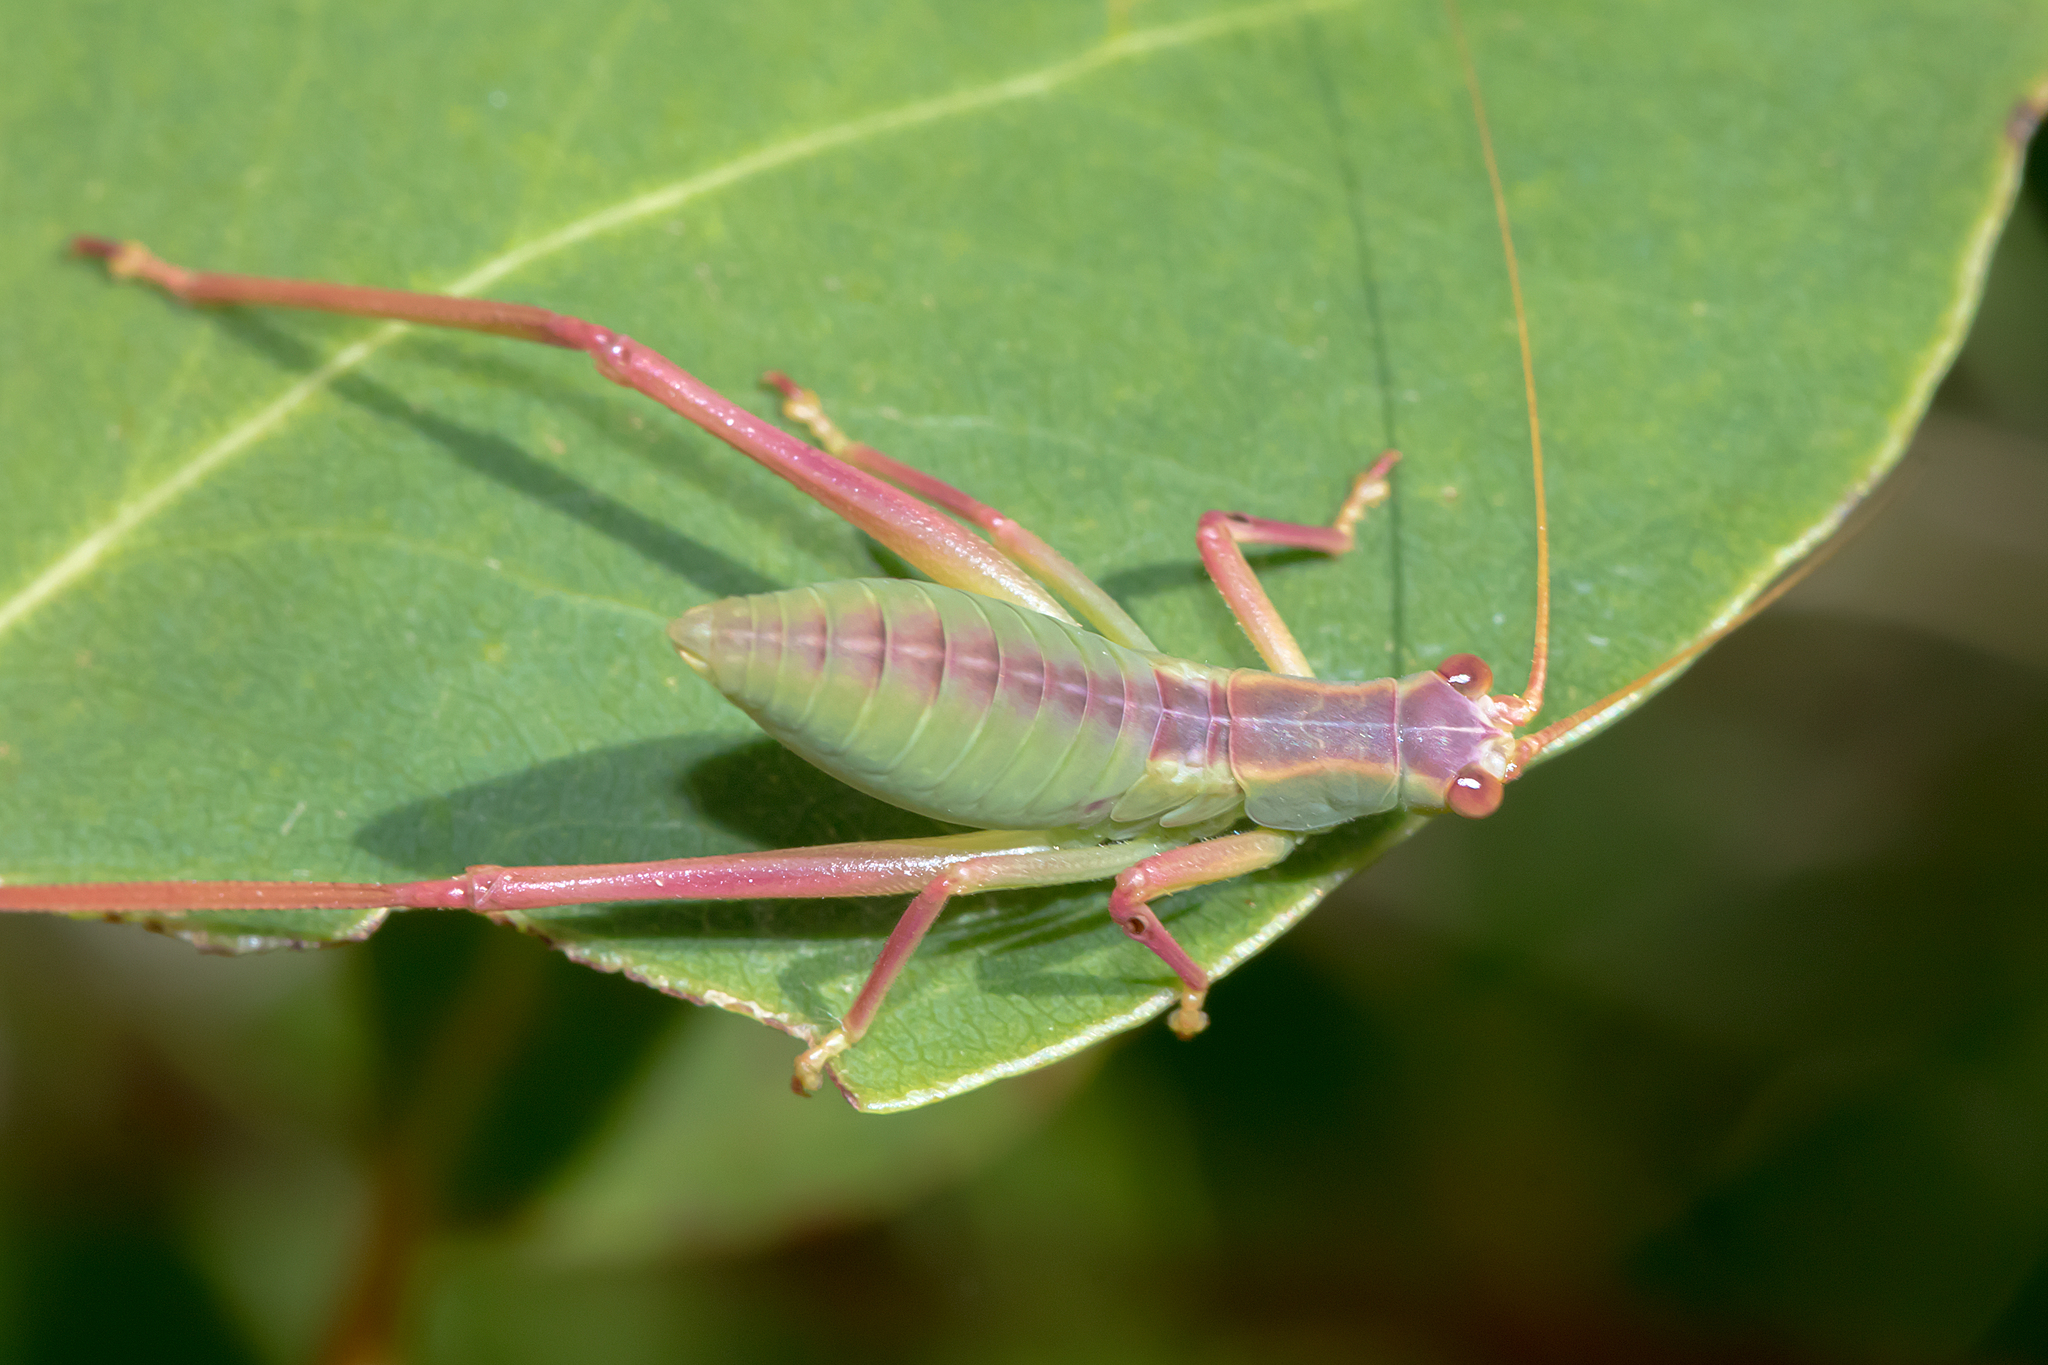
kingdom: Animalia
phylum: Arthropoda
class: Insecta
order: Orthoptera
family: Tettigoniidae
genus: Torbia
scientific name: Torbia viridissima
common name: Non-predaceous gum leaf katydid
